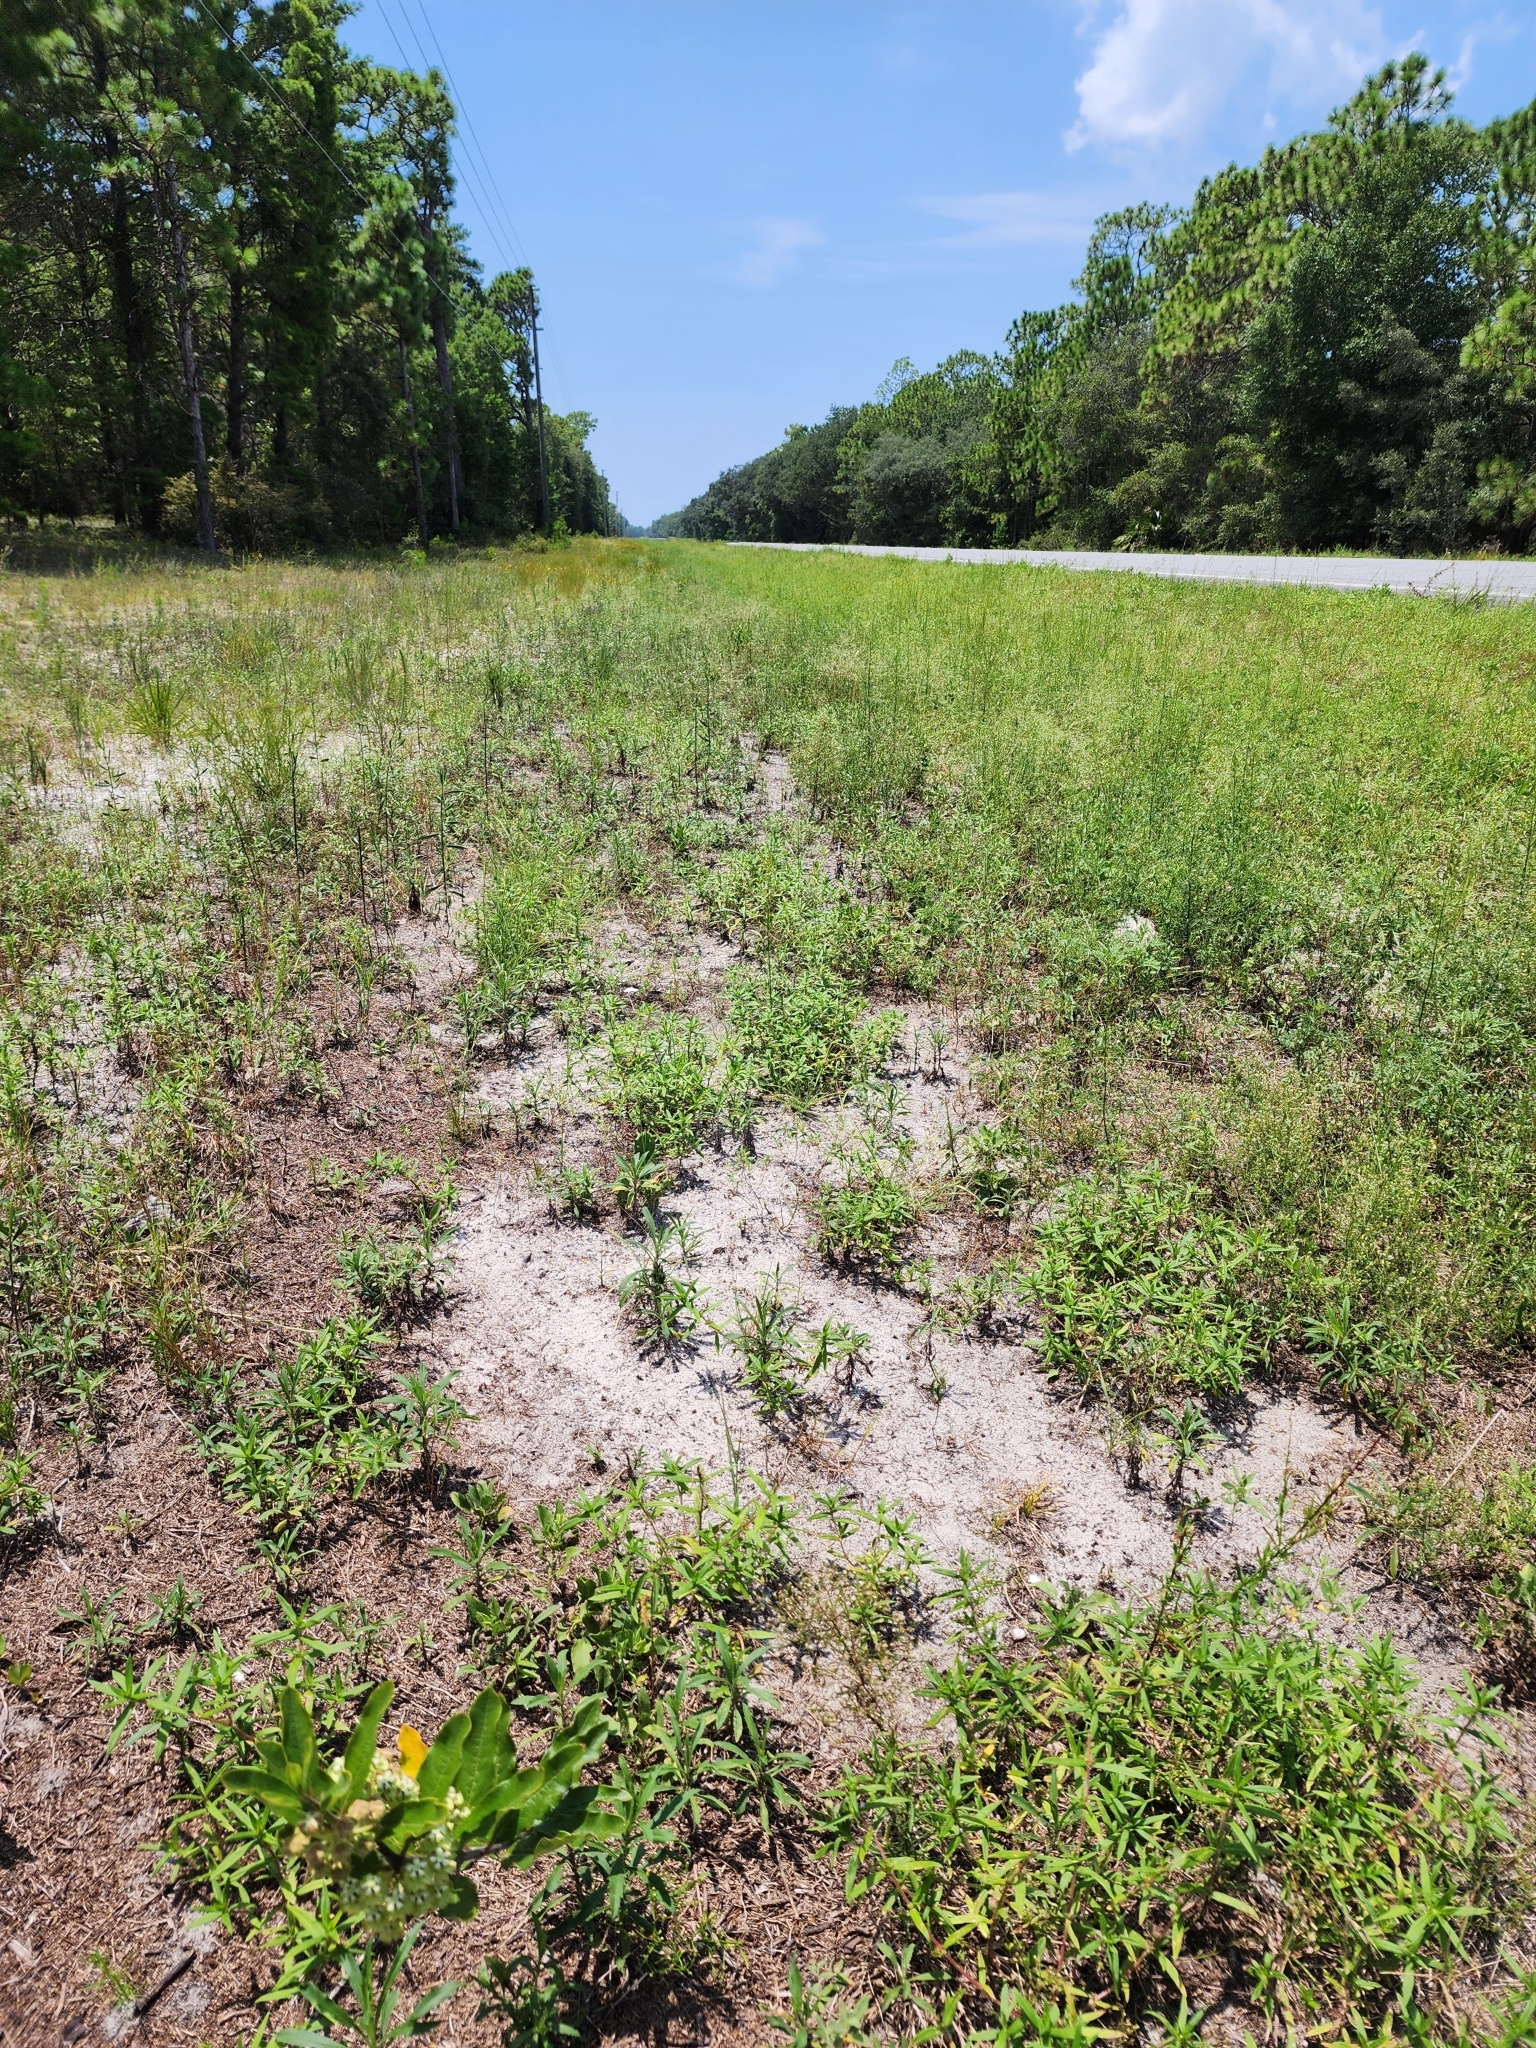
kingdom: Plantae
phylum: Tracheophyta
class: Magnoliopsida
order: Gentianales
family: Apocynaceae
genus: Asclepias
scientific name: Asclepias tomentosa
